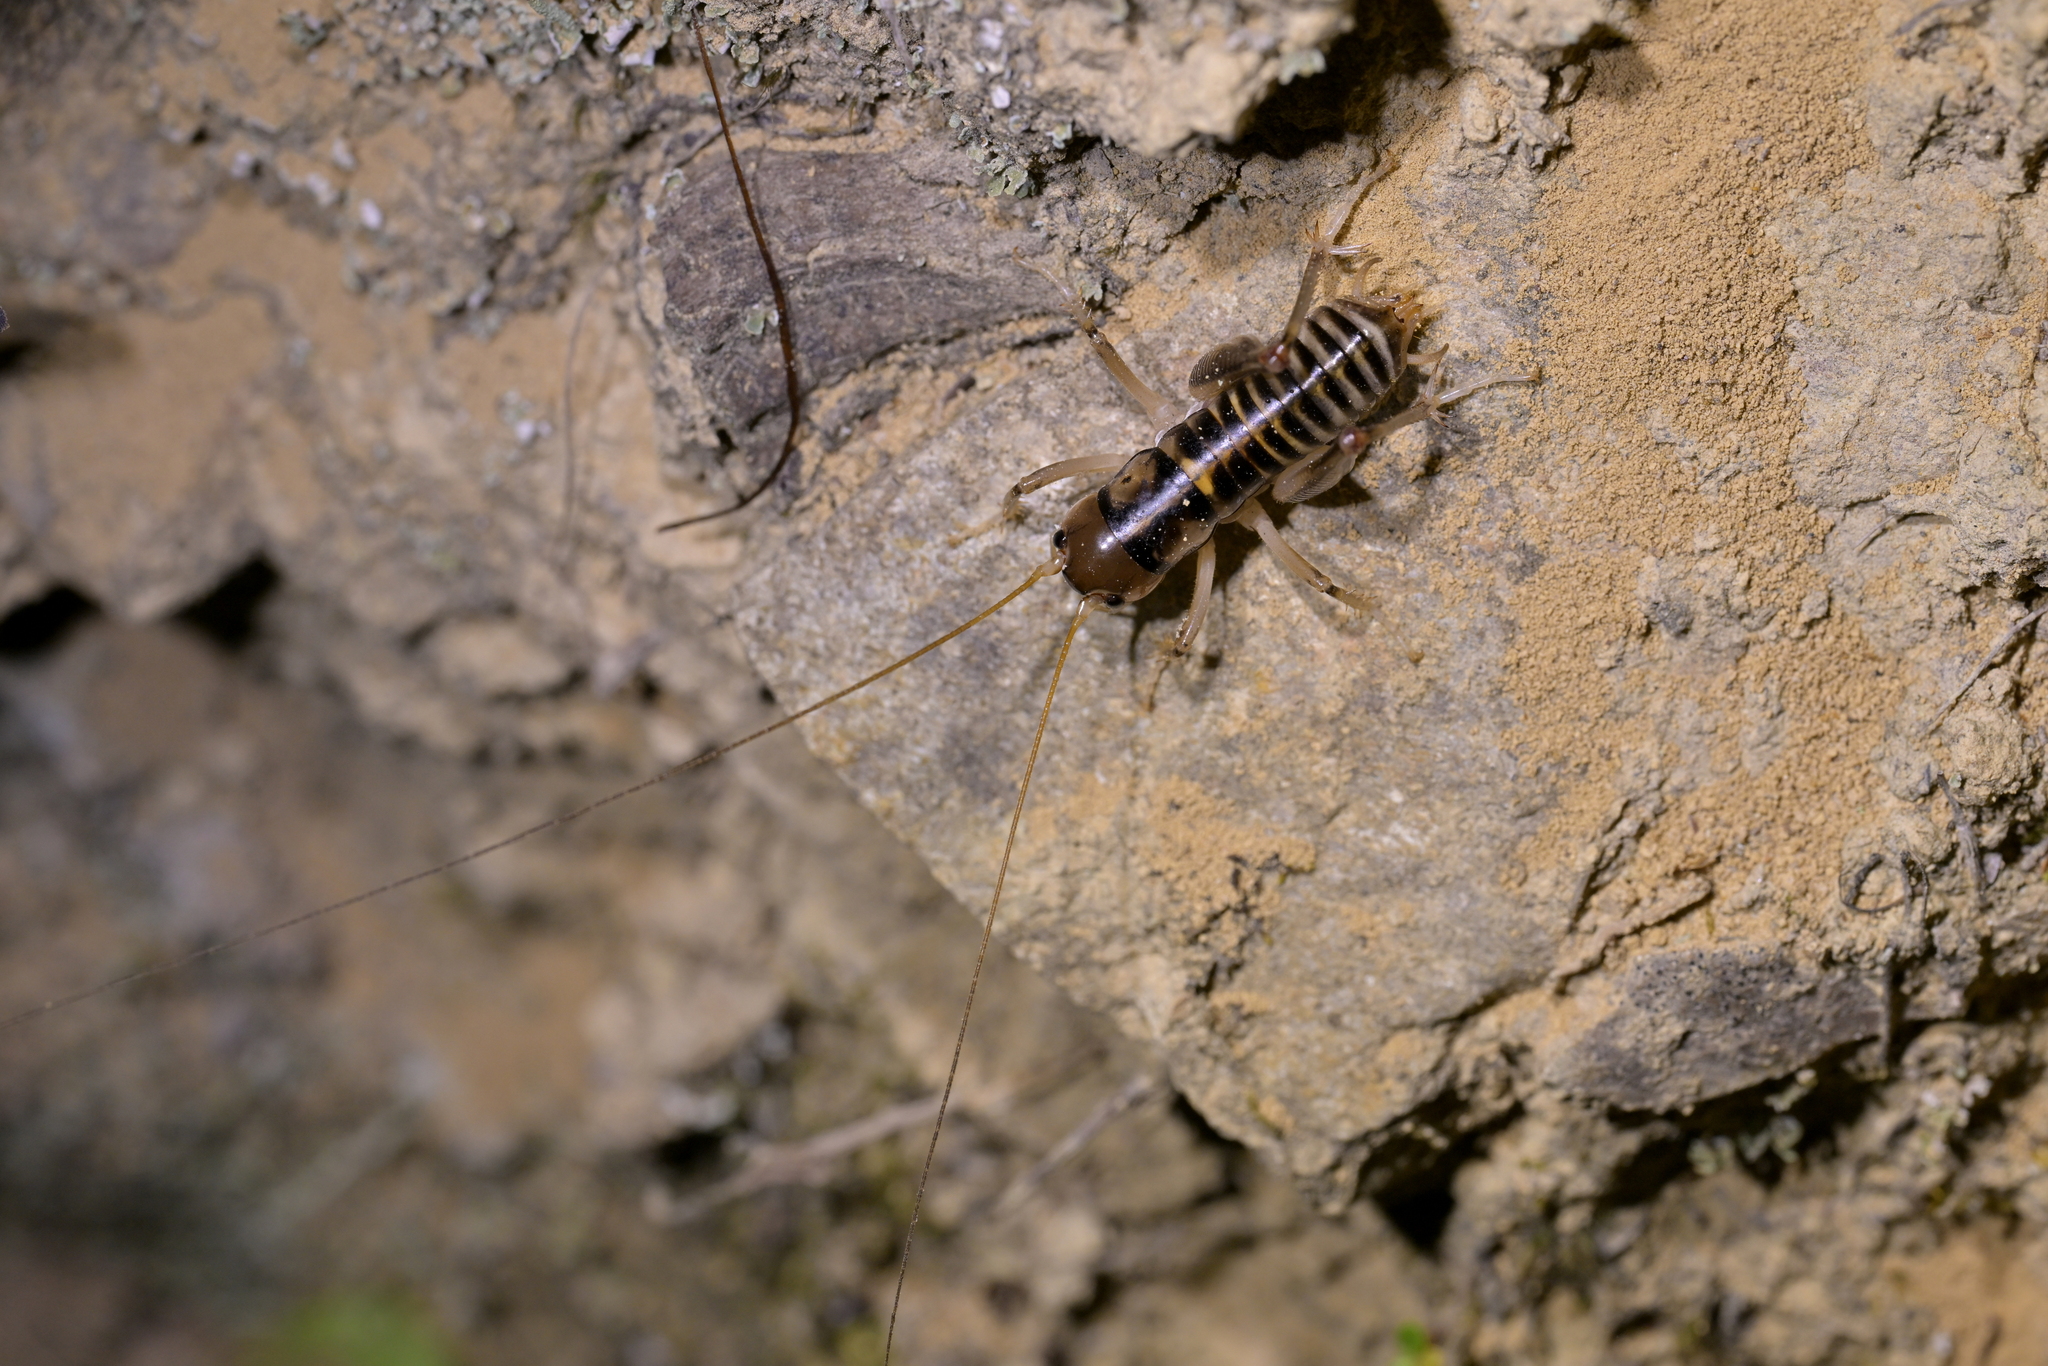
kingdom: Animalia
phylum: Arthropoda
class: Insecta
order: Orthoptera
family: Anostostomatidae
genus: Hemiandrus
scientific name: Hemiandrus pallitarsis
